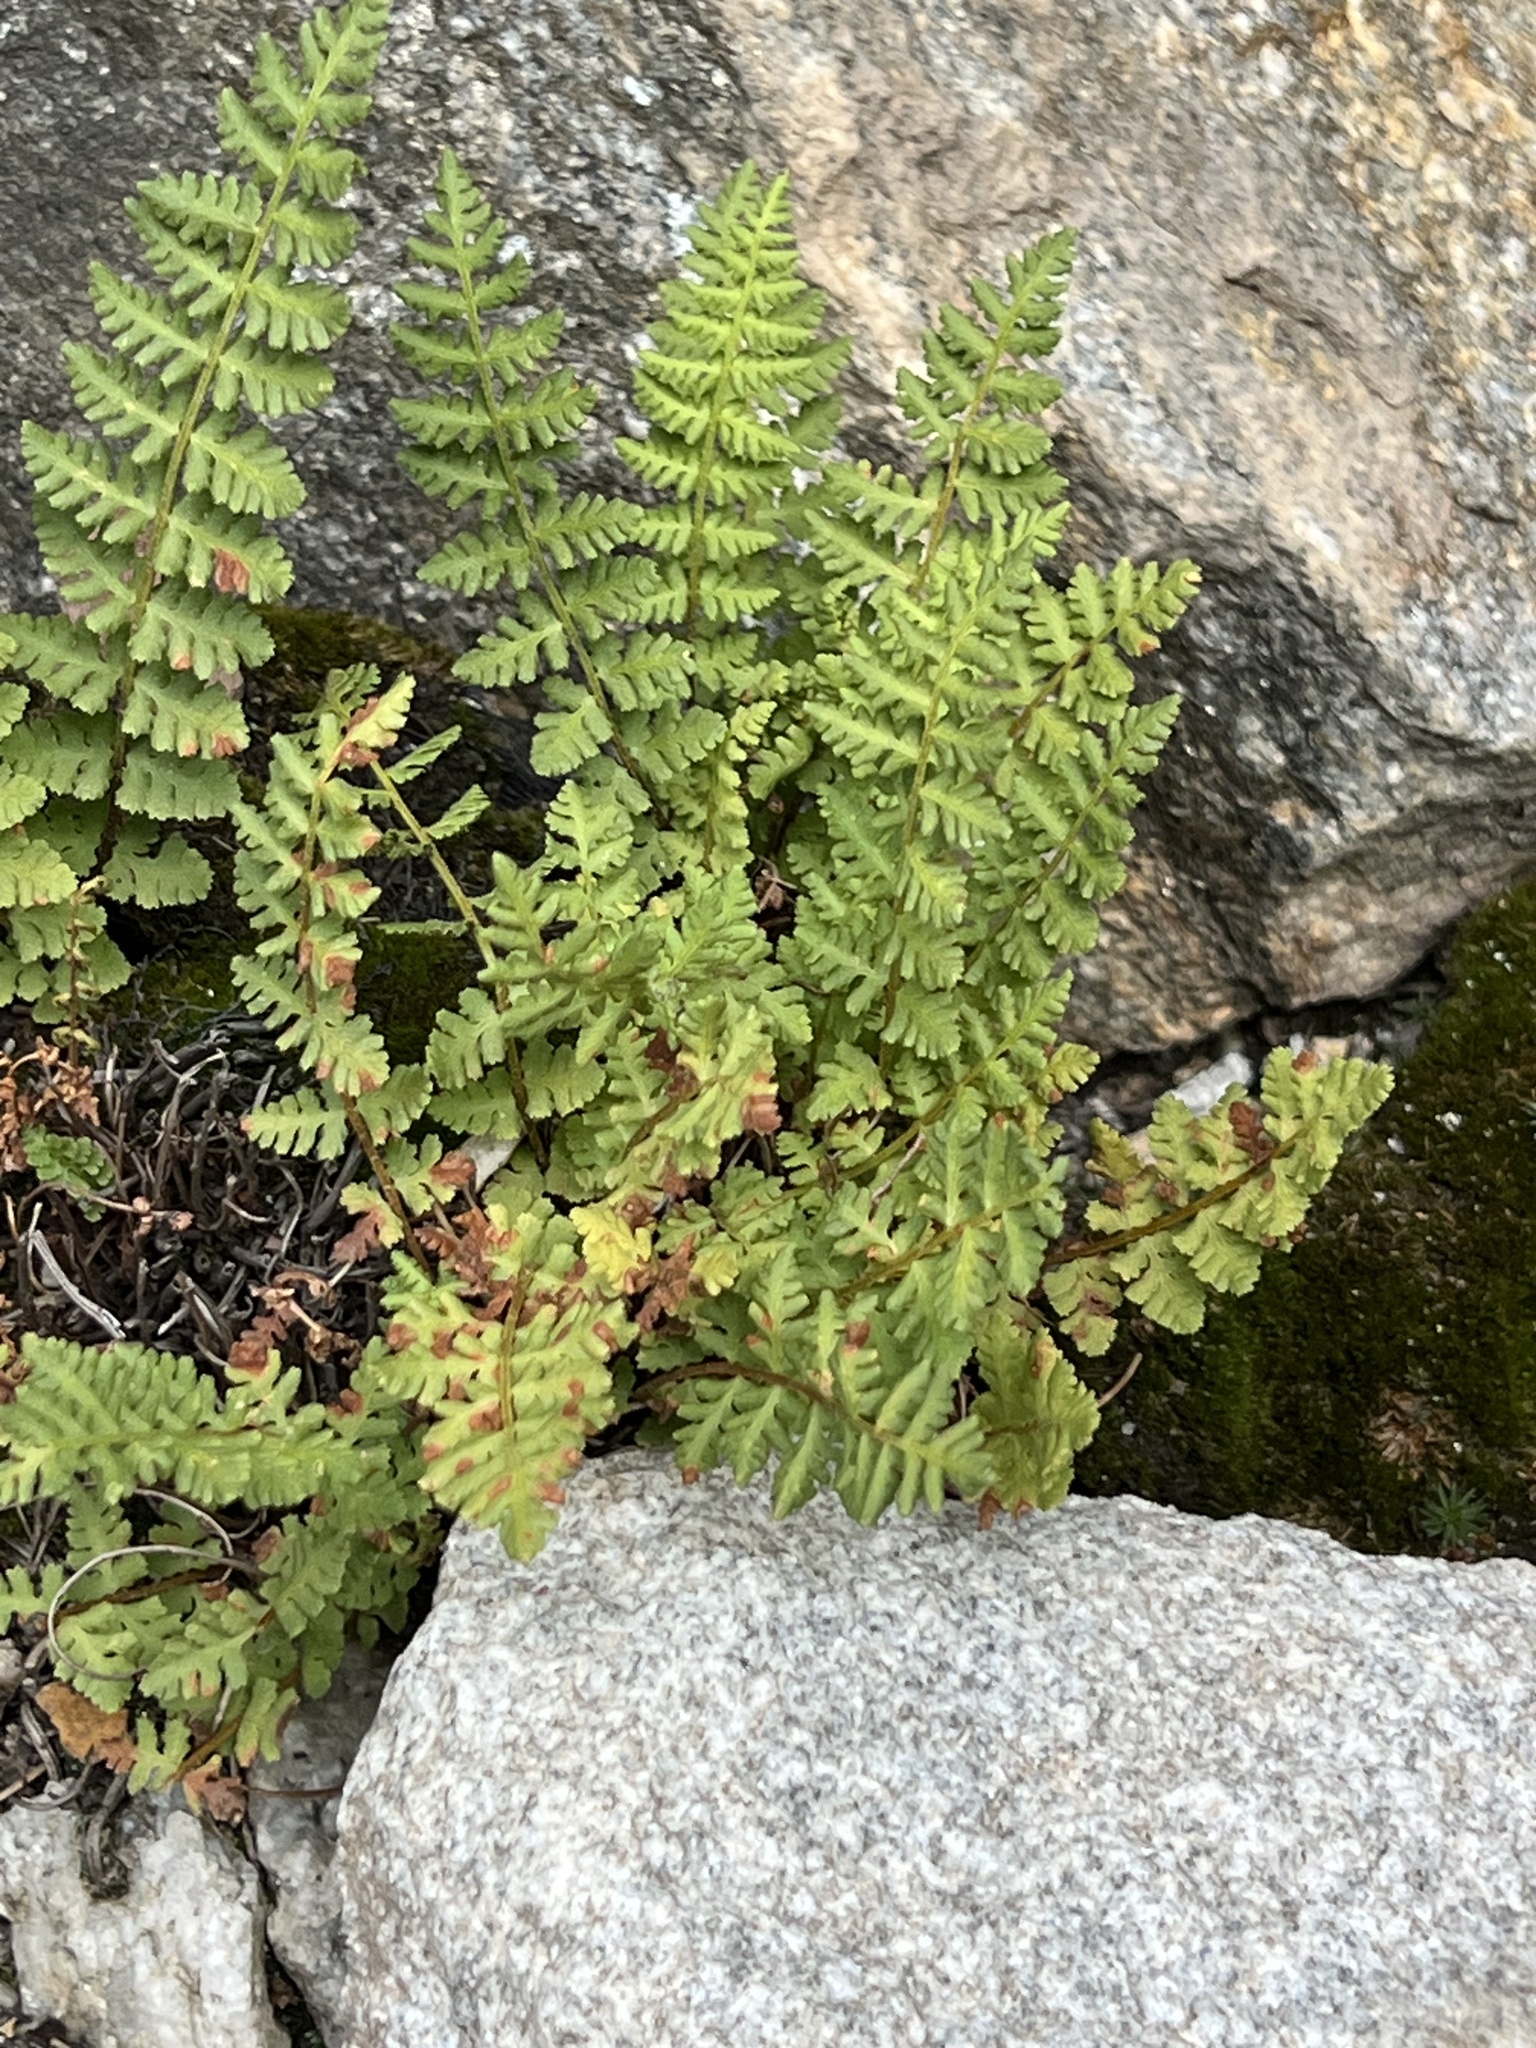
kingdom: Plantae
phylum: Tracheophyta
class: Polypodiopsida
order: Polypodiales
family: Woodsiaceae
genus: Physematium
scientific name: Physematium scopulinum
